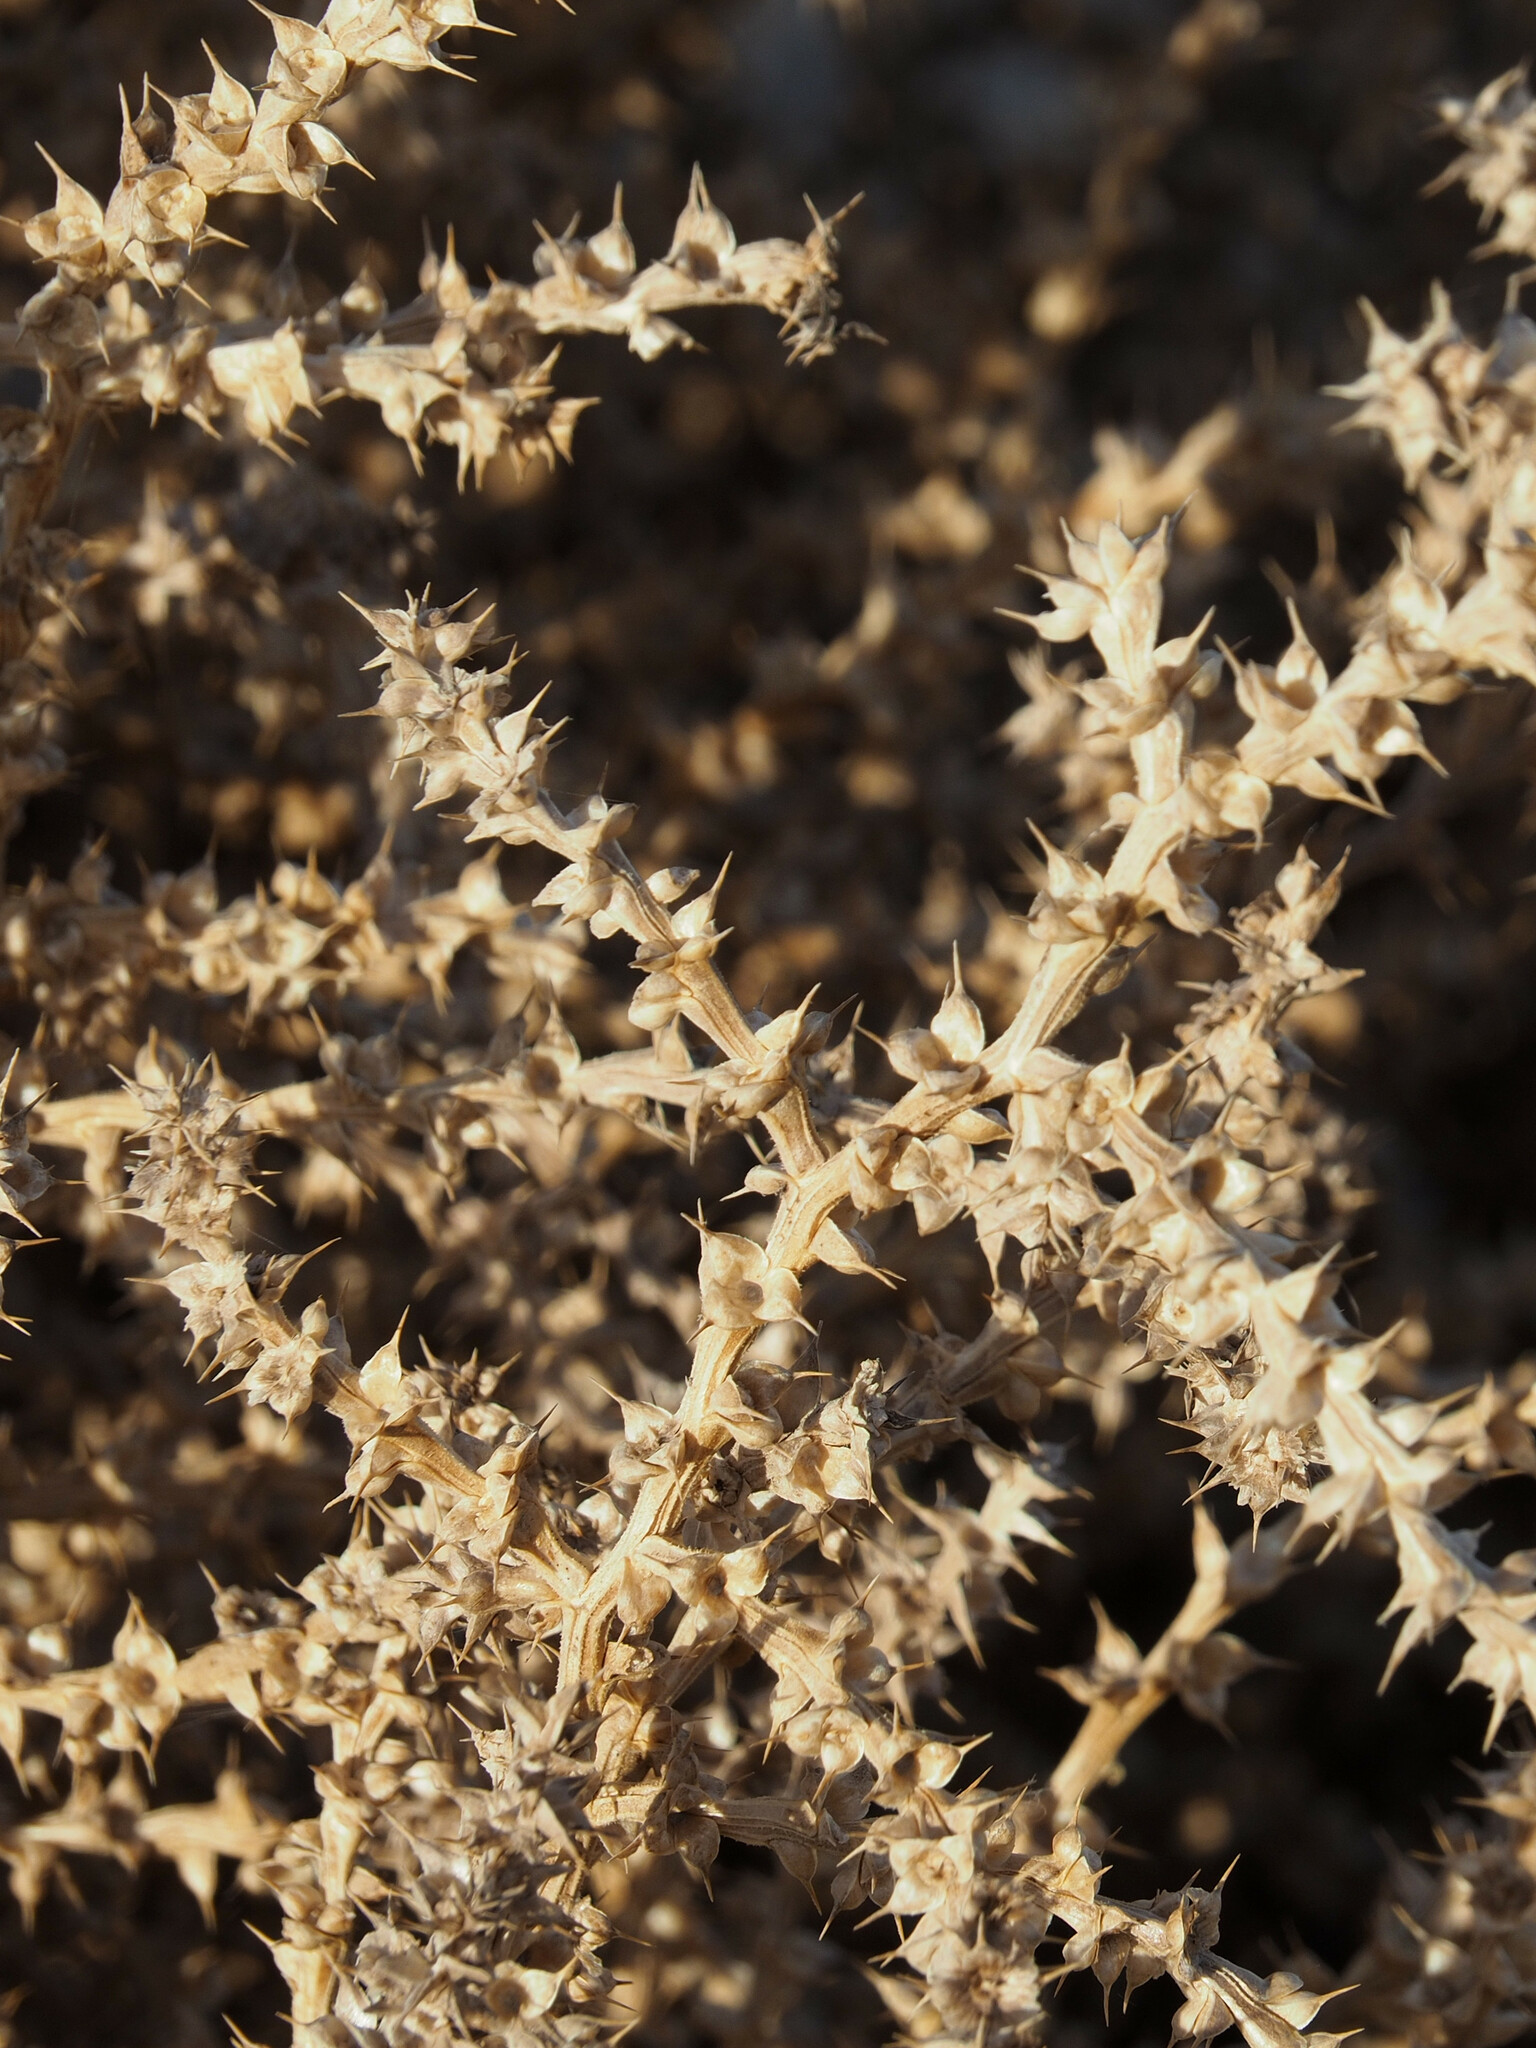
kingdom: Plantae
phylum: Tracheophyta
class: Magnoliopsida
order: Caryophyllales
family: Amaranthaceae
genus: Salsola
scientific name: Salsola kali
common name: Saltwort
